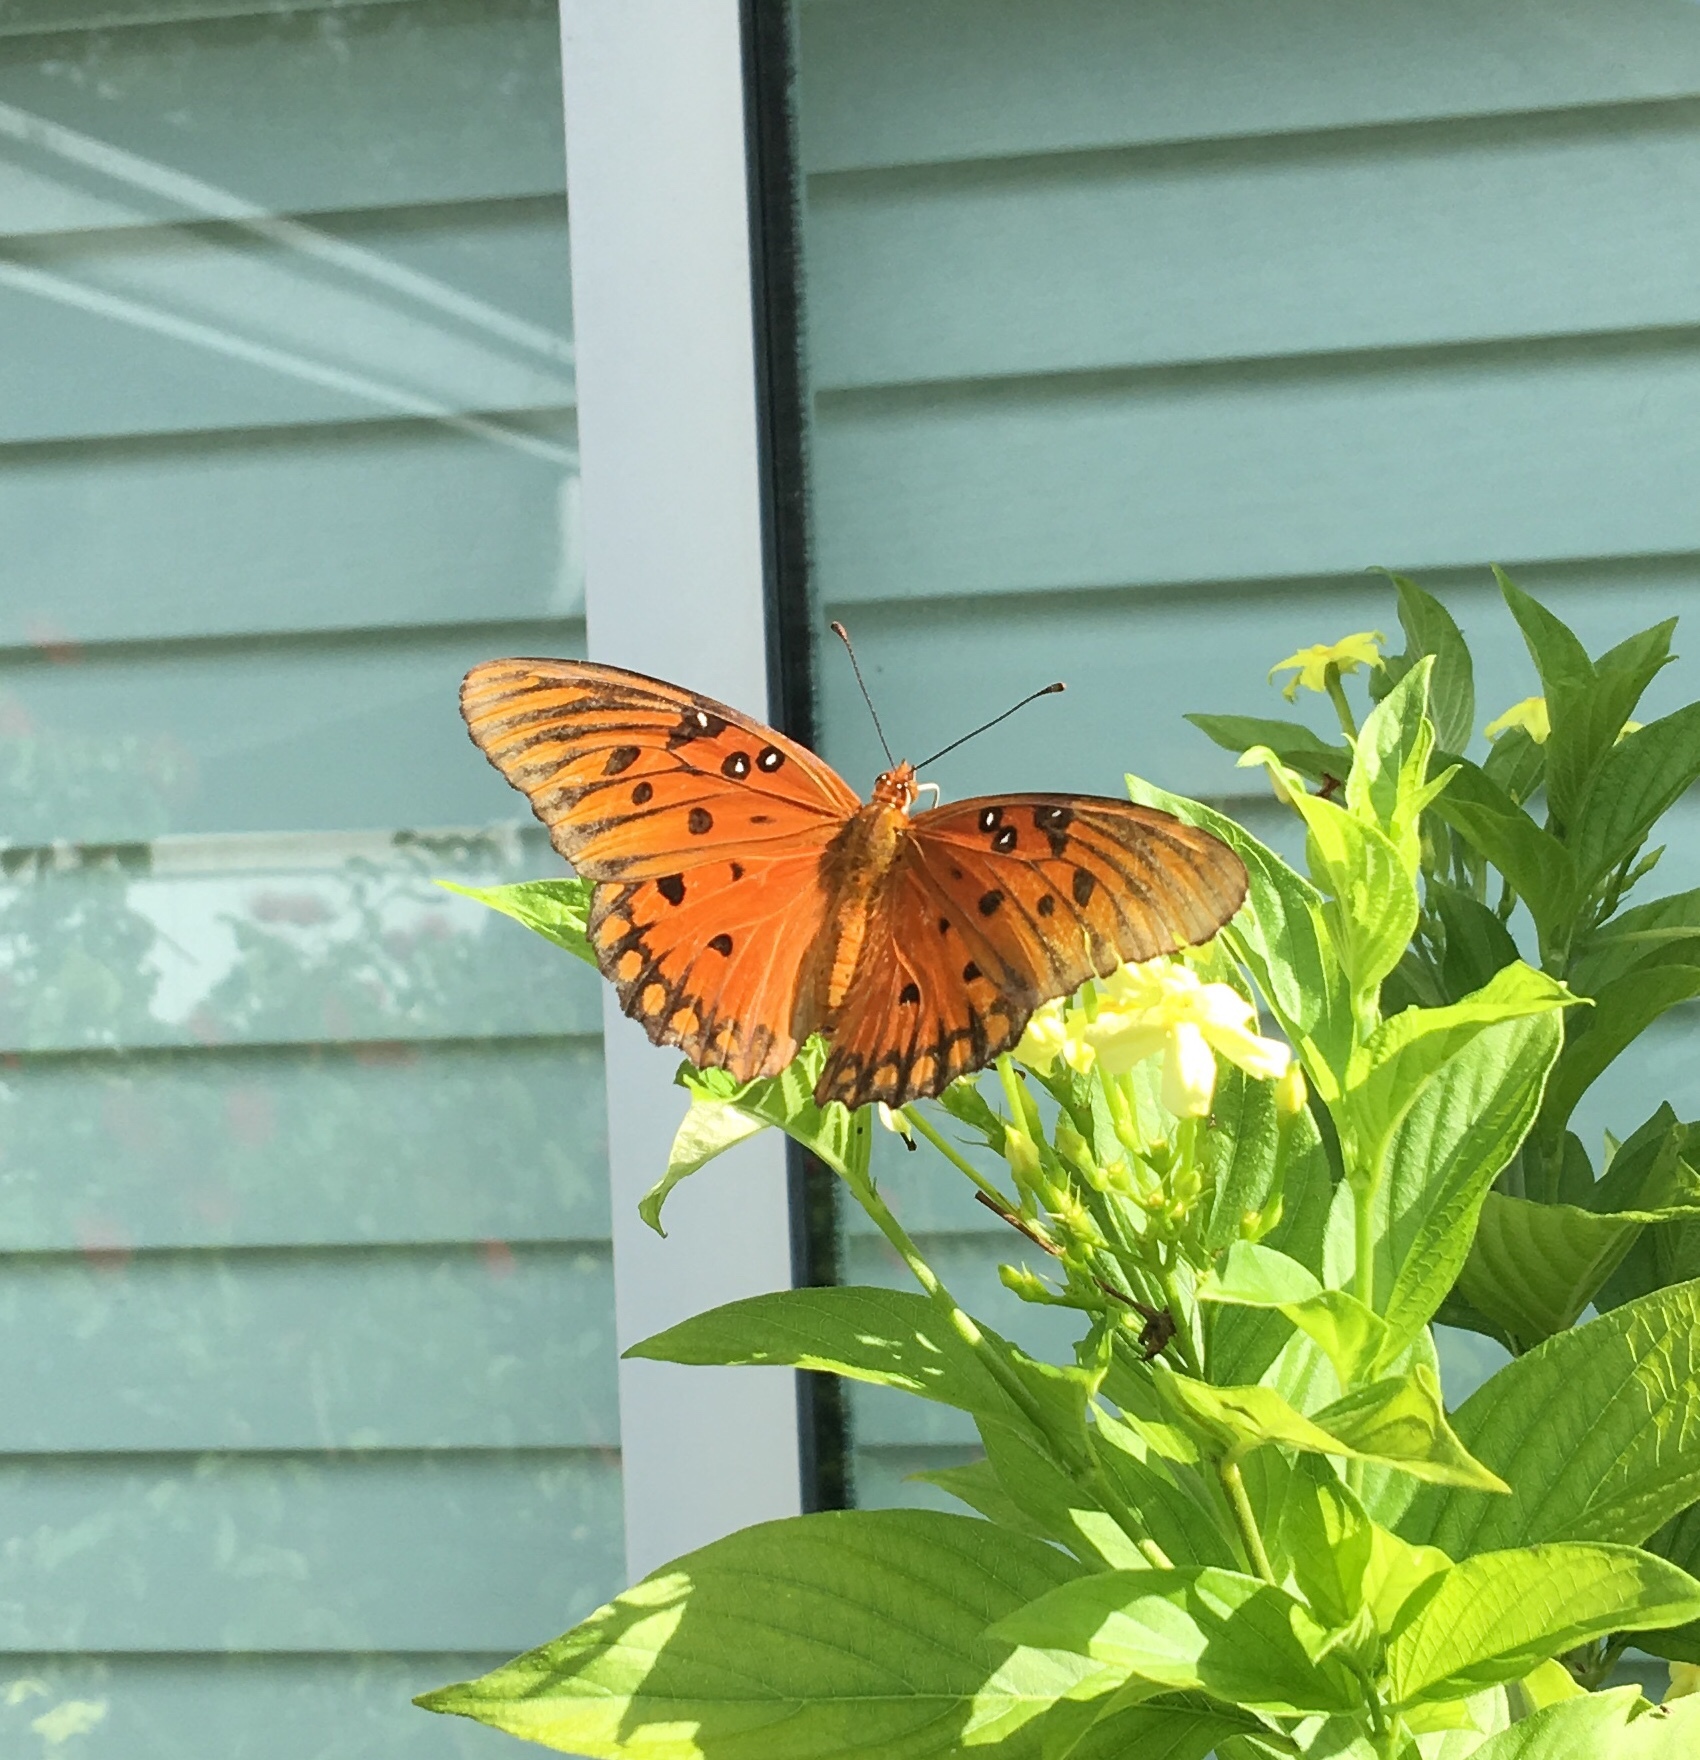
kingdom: Animalia
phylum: Arthropoda
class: Insecta
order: Lepidoptera
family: Nymphalidae
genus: Dione
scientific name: Dione vanillae
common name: Gulf fritillary
